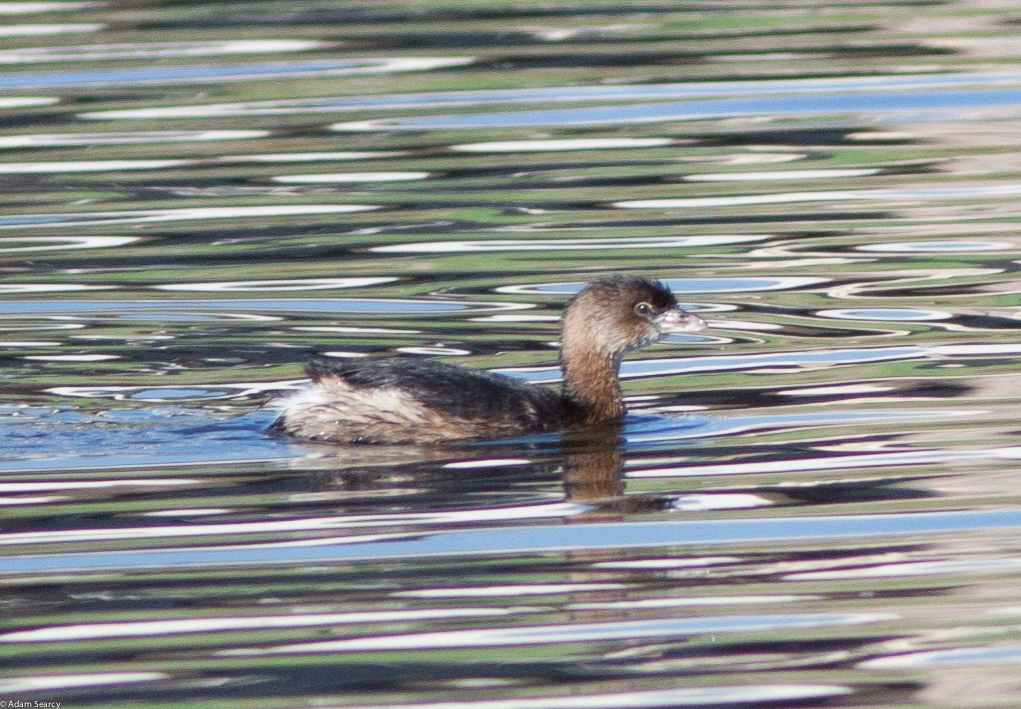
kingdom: Animalia
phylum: Chordata
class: Aves
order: Podicipediformes
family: Podicipedidae
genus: Podilymbus
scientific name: Podilymbus podiceps
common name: Pied-billed grebe
